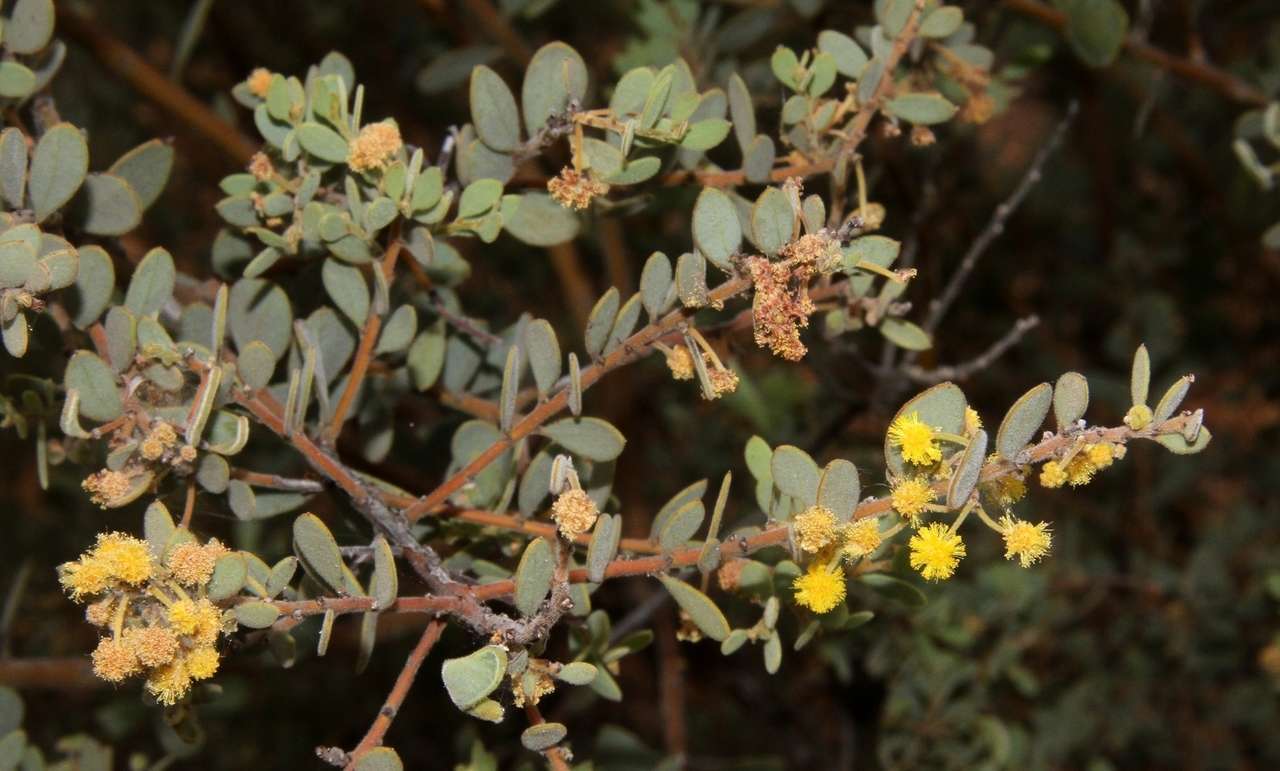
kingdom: Plantae
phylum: Tracheophyta
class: Magnoliopsida
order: Fabales
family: Fabaceae
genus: Acacia
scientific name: Acacia brachybotrya
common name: Grey mulga
